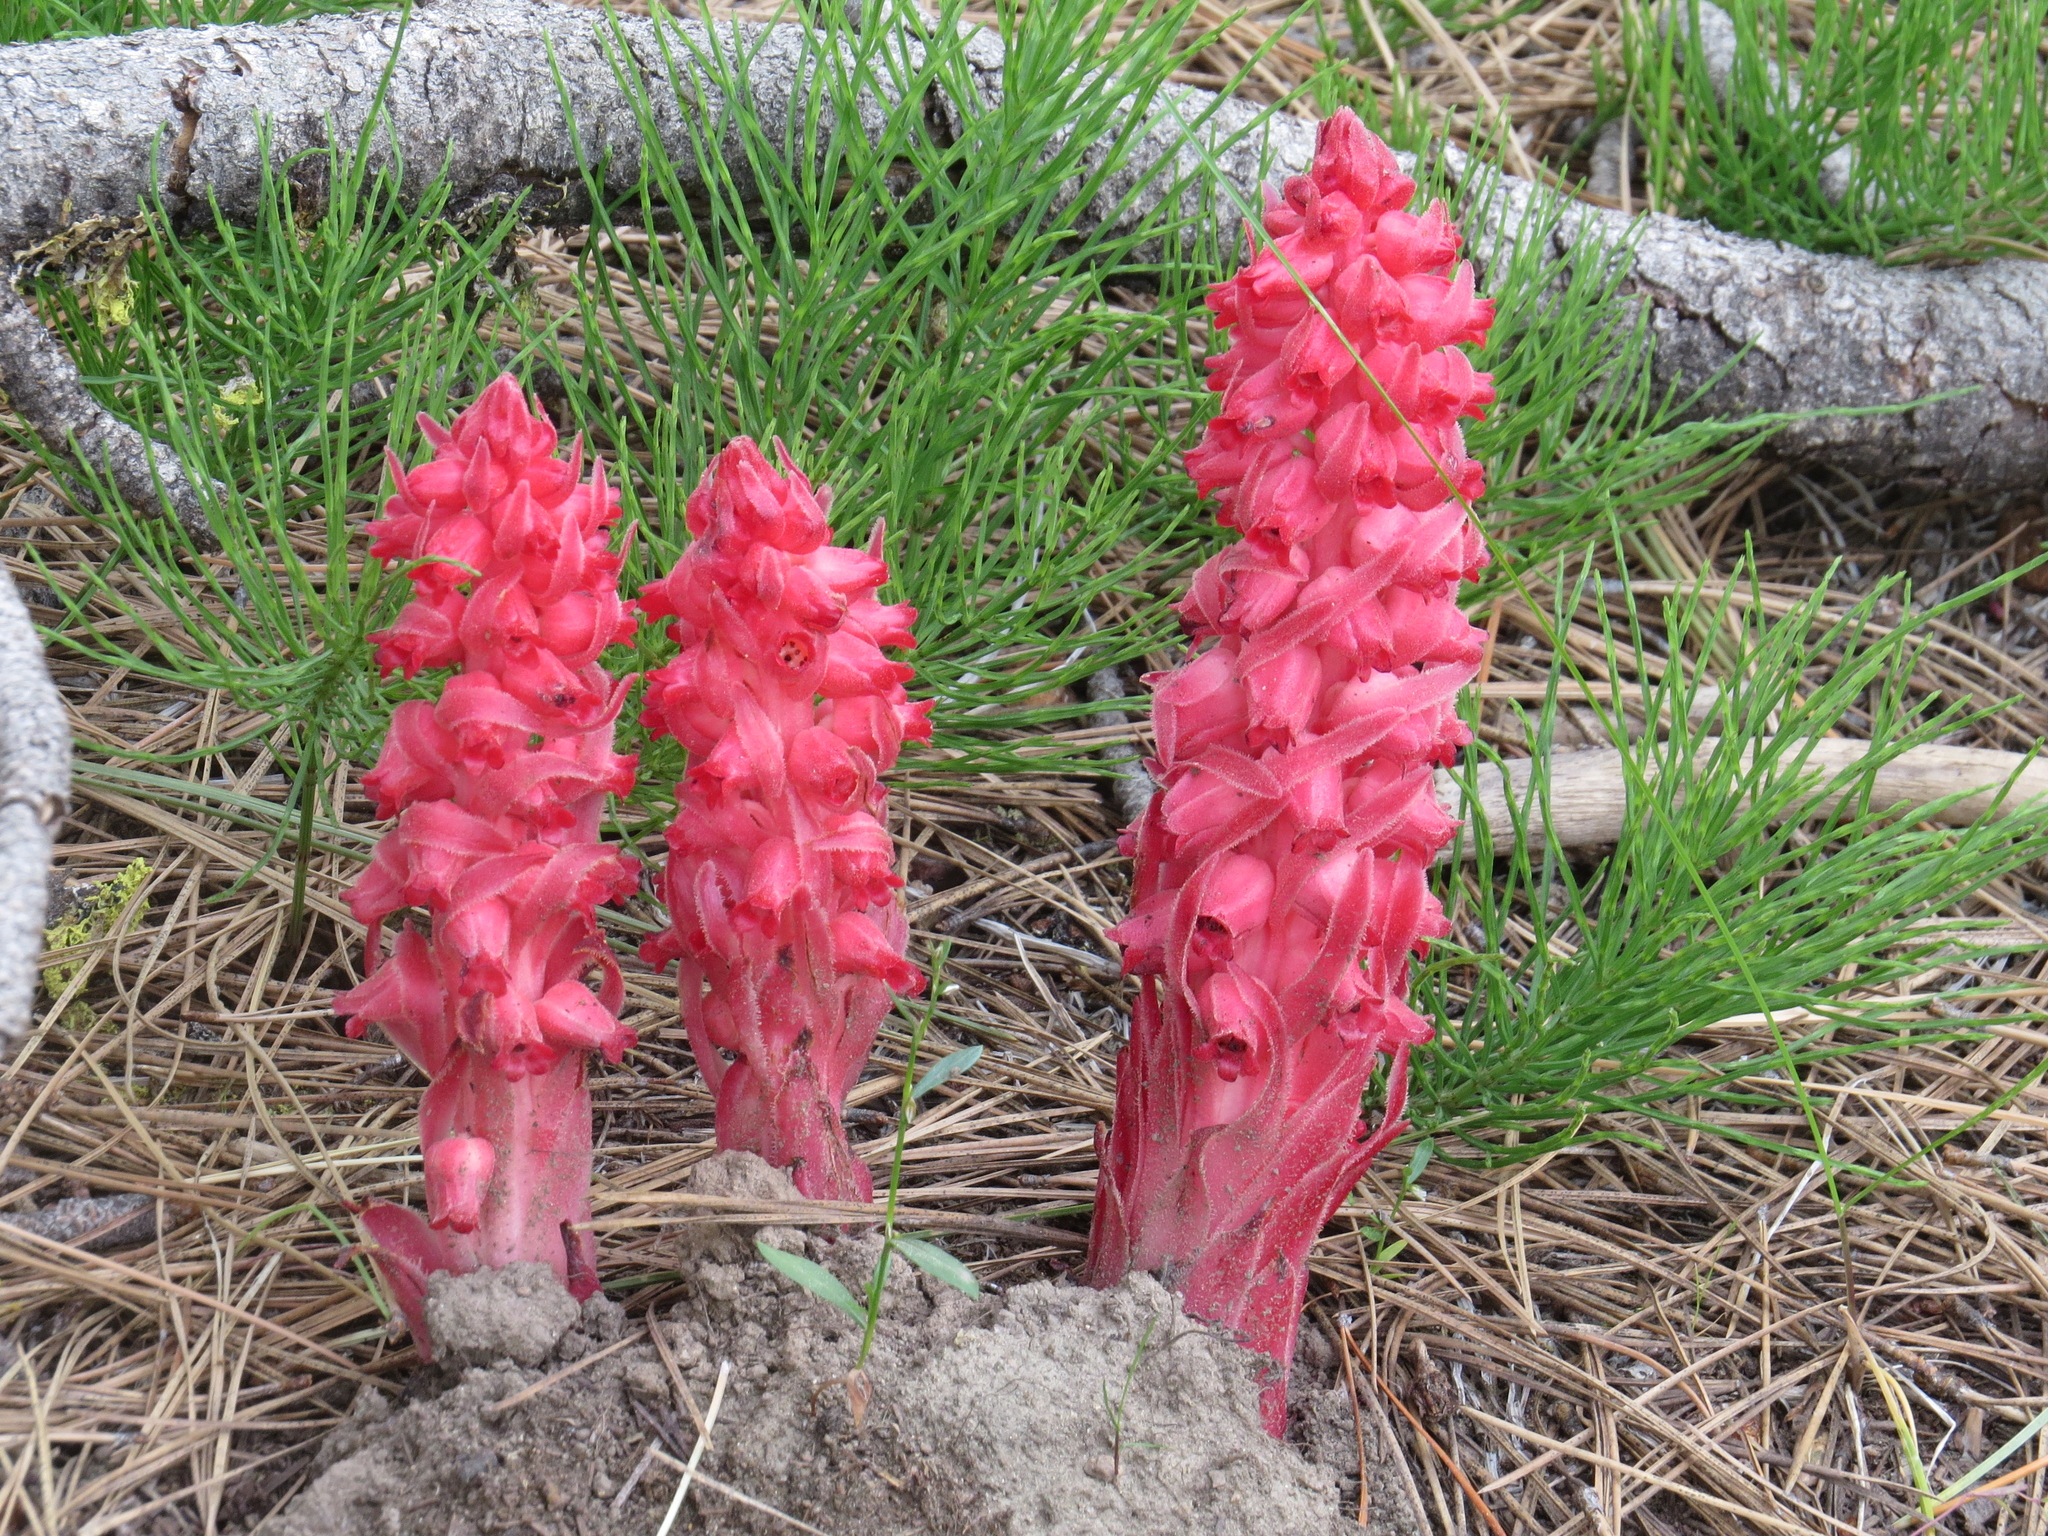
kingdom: Plantae
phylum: Tracheophyta
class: Magnoliopsida
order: Ericales
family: Ericaceae
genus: Sarcodes
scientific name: Sarcodes sanguinea
